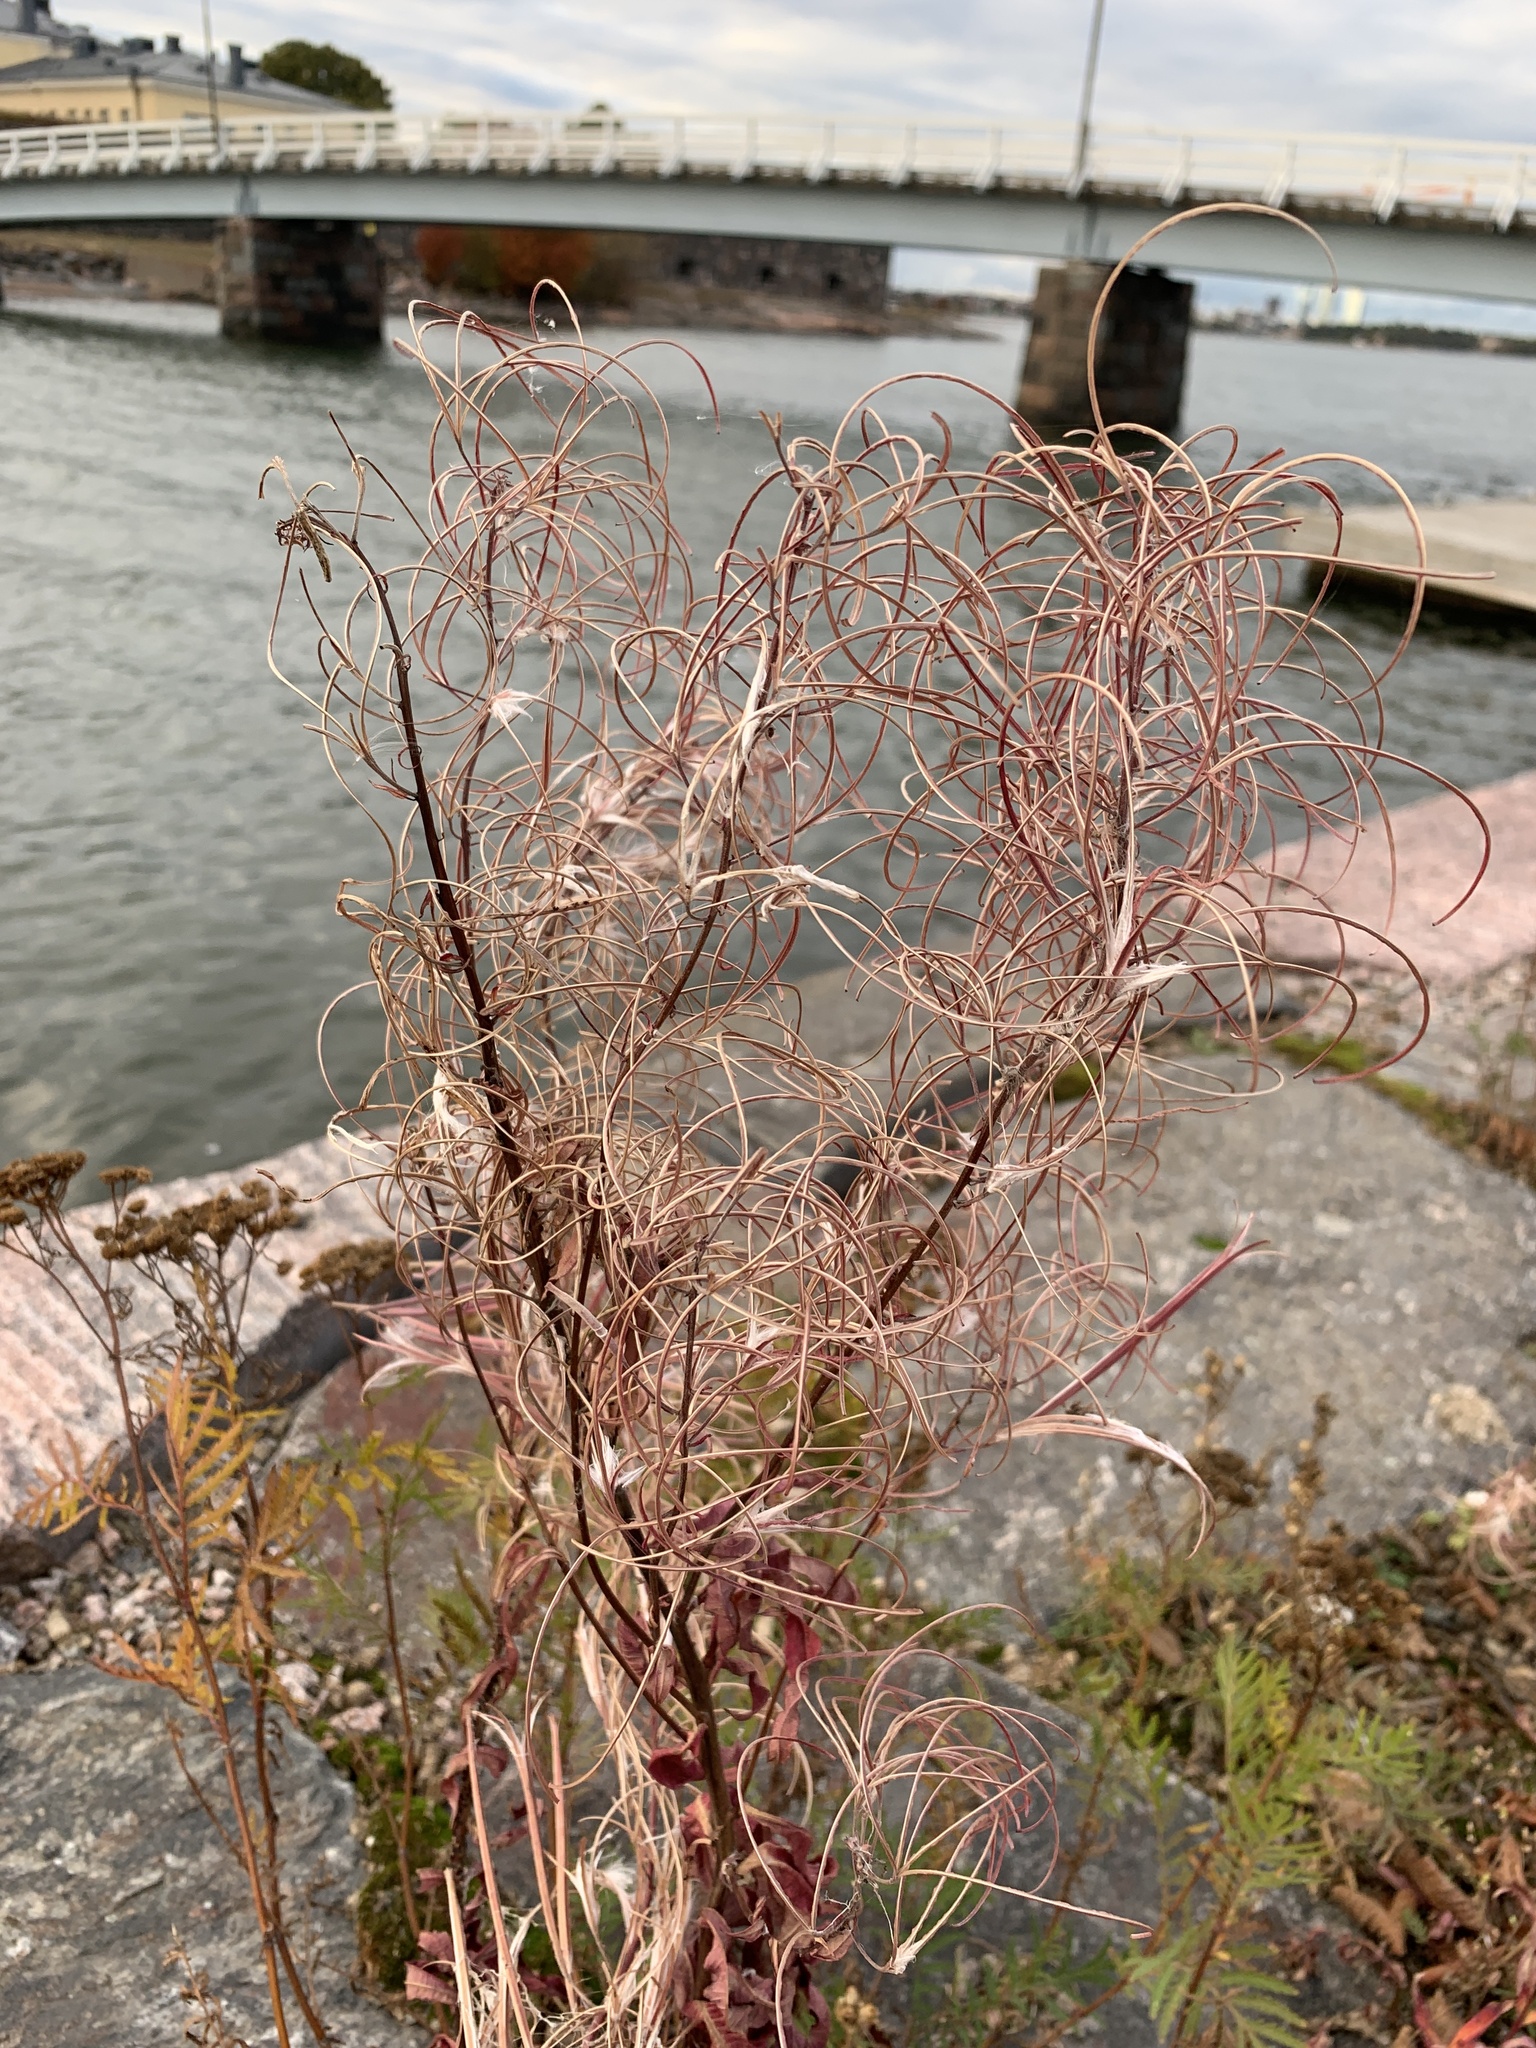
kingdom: Plantae
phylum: Tracheophyta
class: Magnoliopsida
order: Myrtales
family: Onagraceae
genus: Chamaenerion
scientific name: Chamaenerion angustifolium
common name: Fireweed
